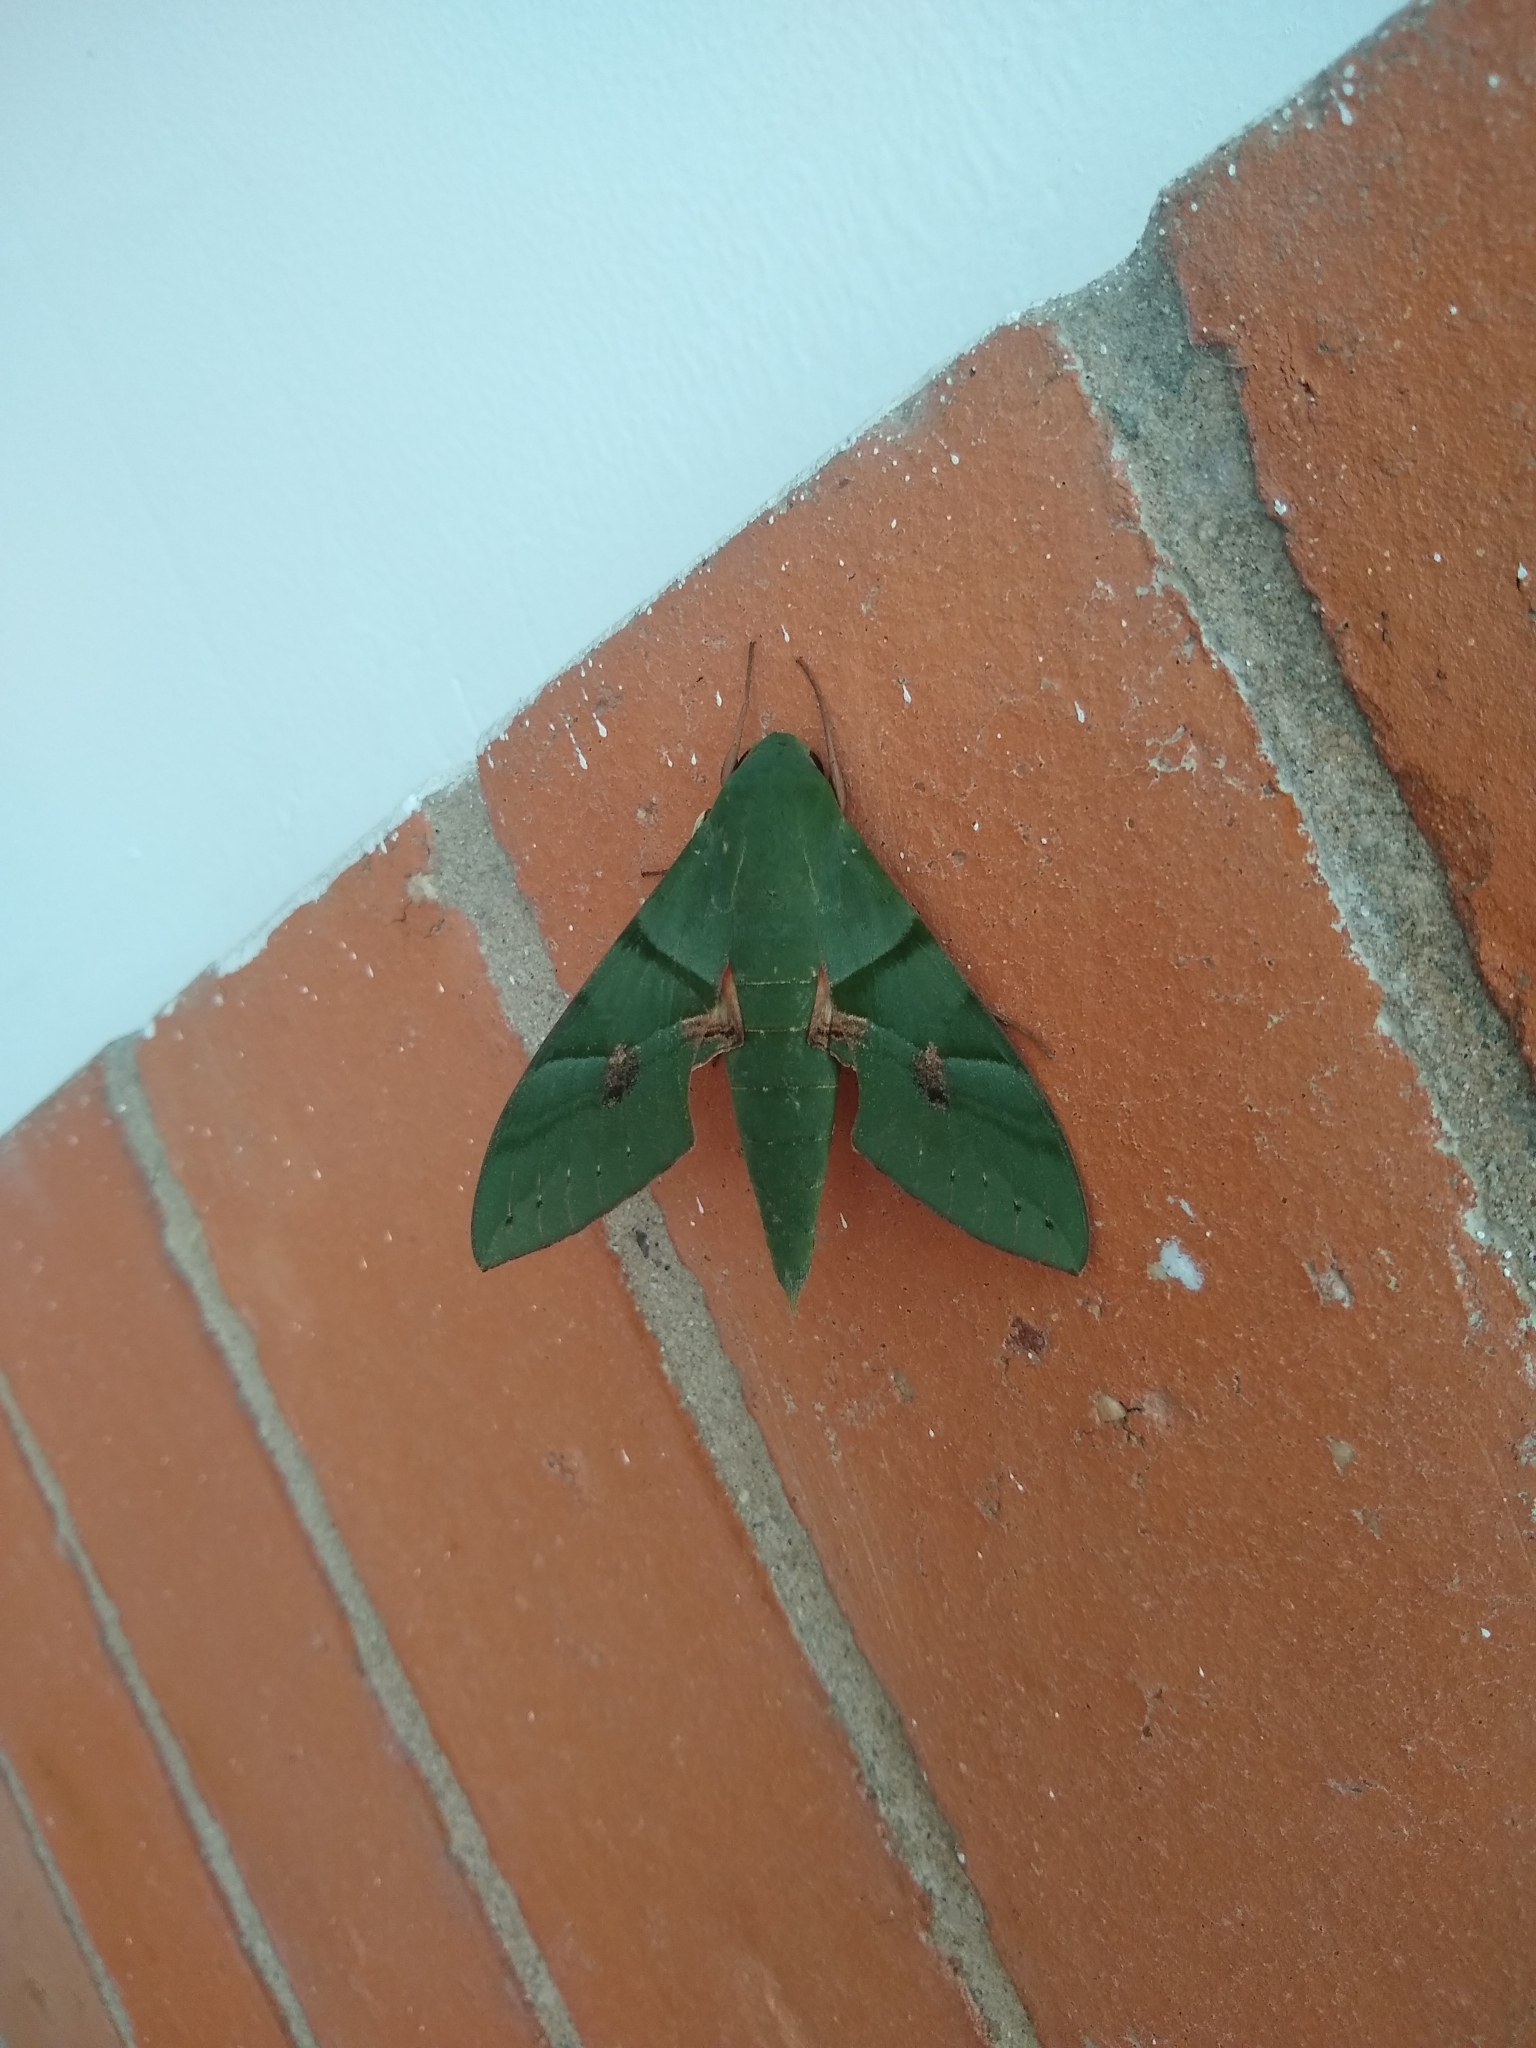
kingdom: Animalia
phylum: Arthropoda
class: Insecta
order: Lepidoptera
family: Sphingidae
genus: Eumorpha
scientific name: Eumorpha labruscae
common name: Gaudy sphinx
